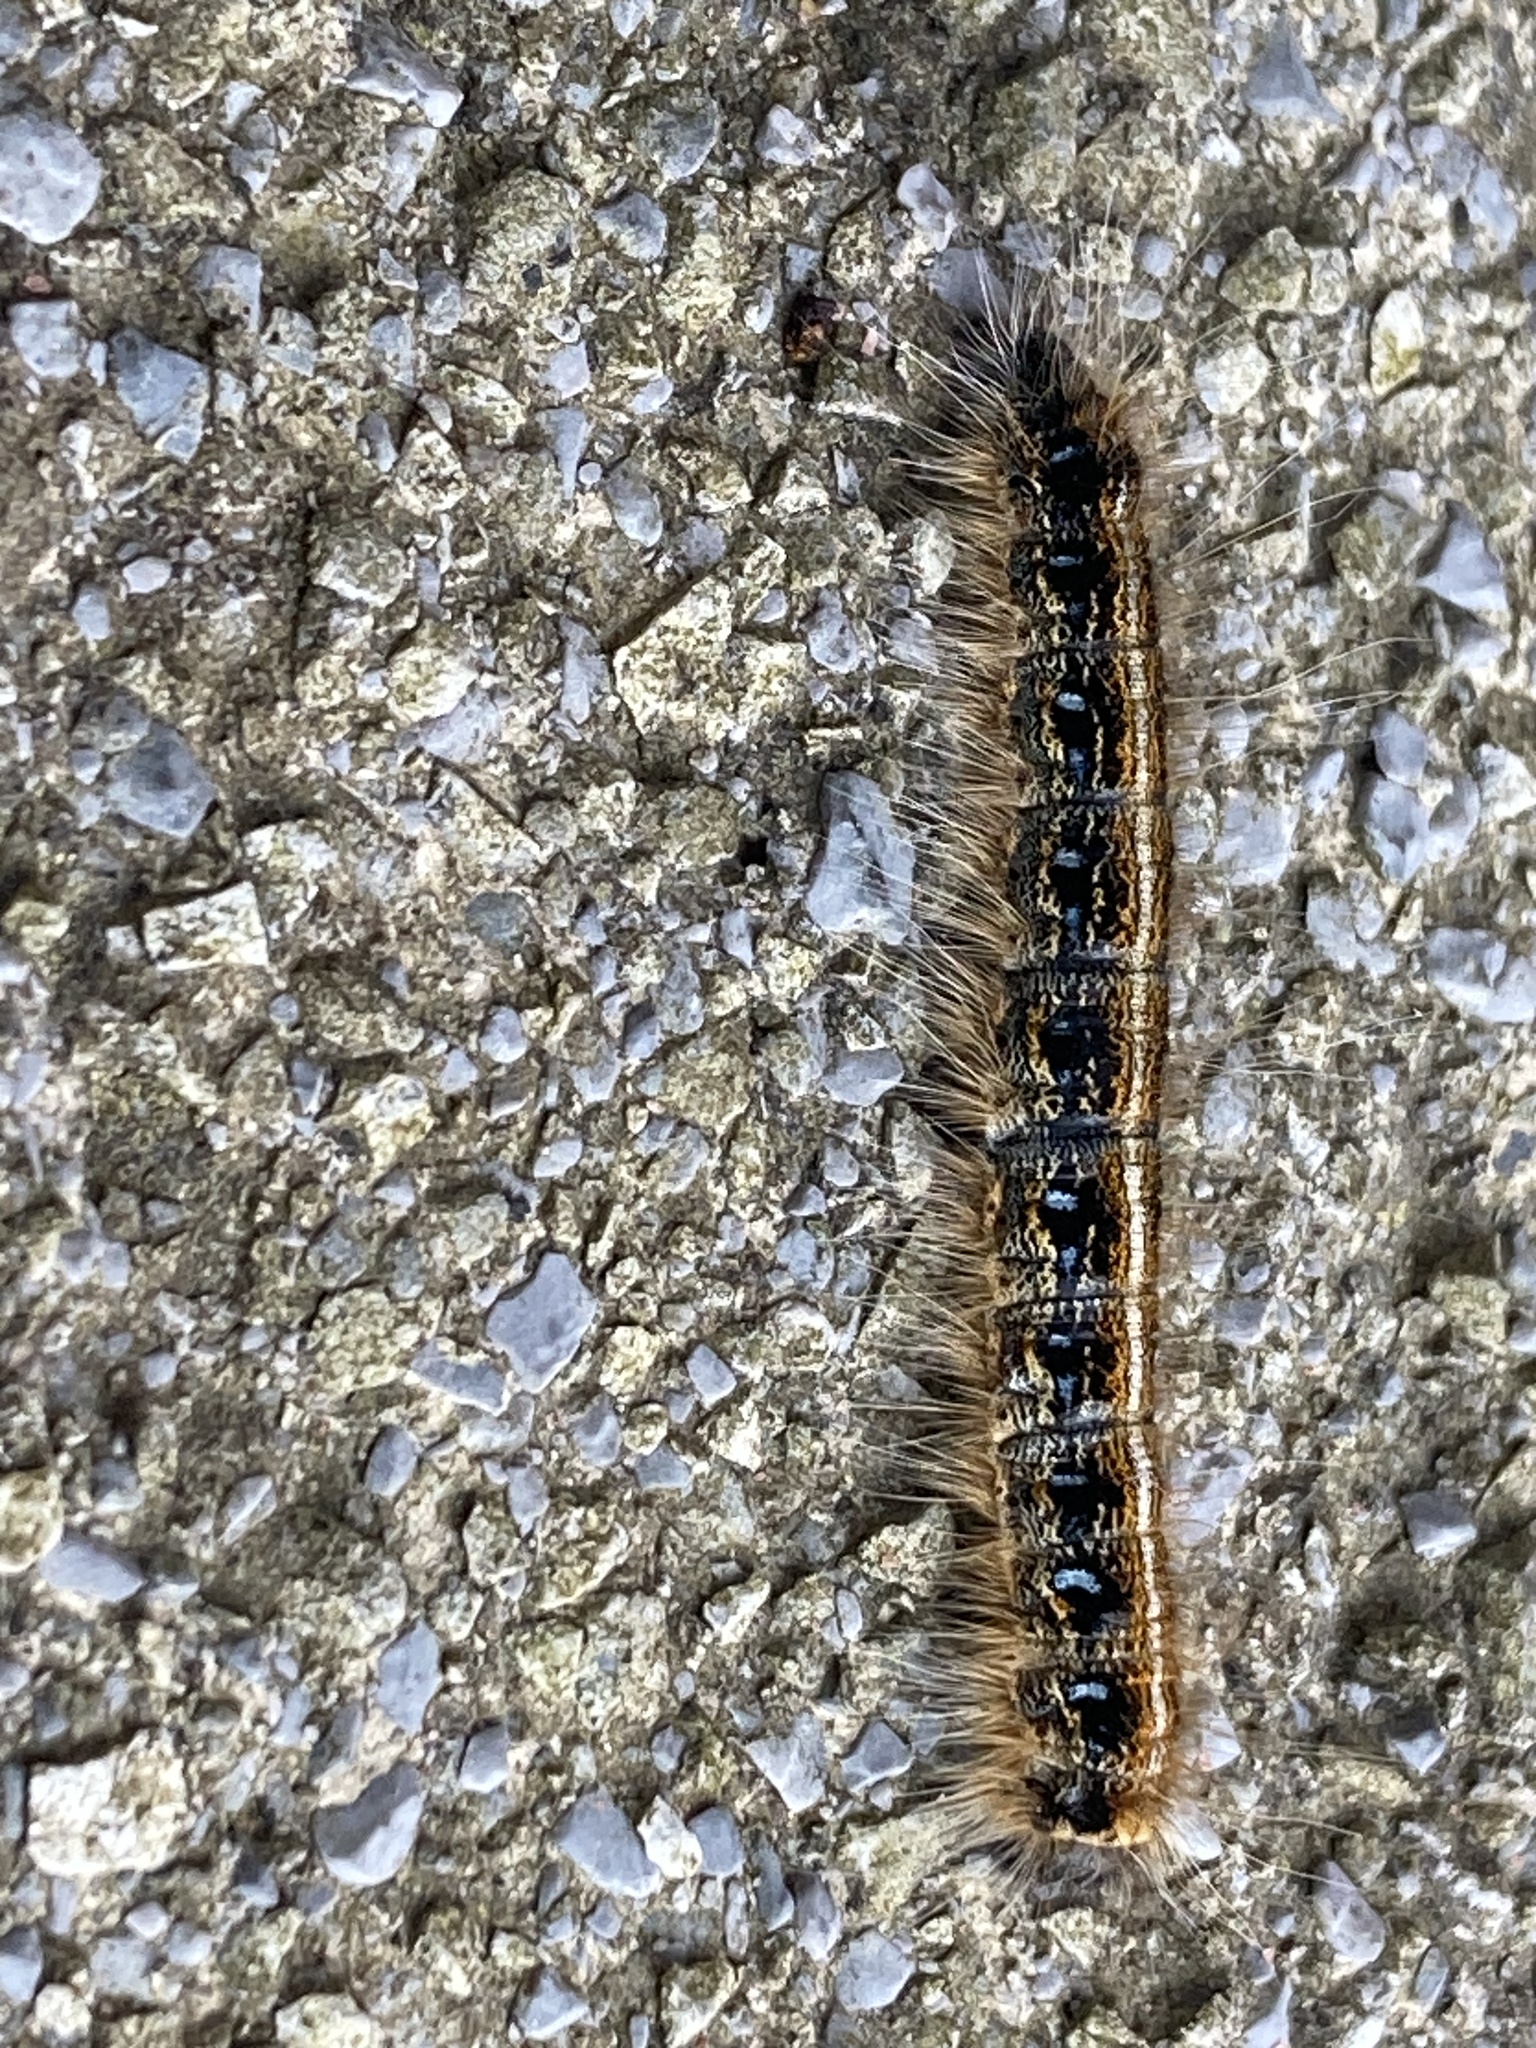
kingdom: Animalia
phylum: Arthropoda
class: Insecta
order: Lepidoptera
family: Lasiocampidae
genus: Malacosoma
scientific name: Malacosoma americana
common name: Eastern tent caterpillar moth
